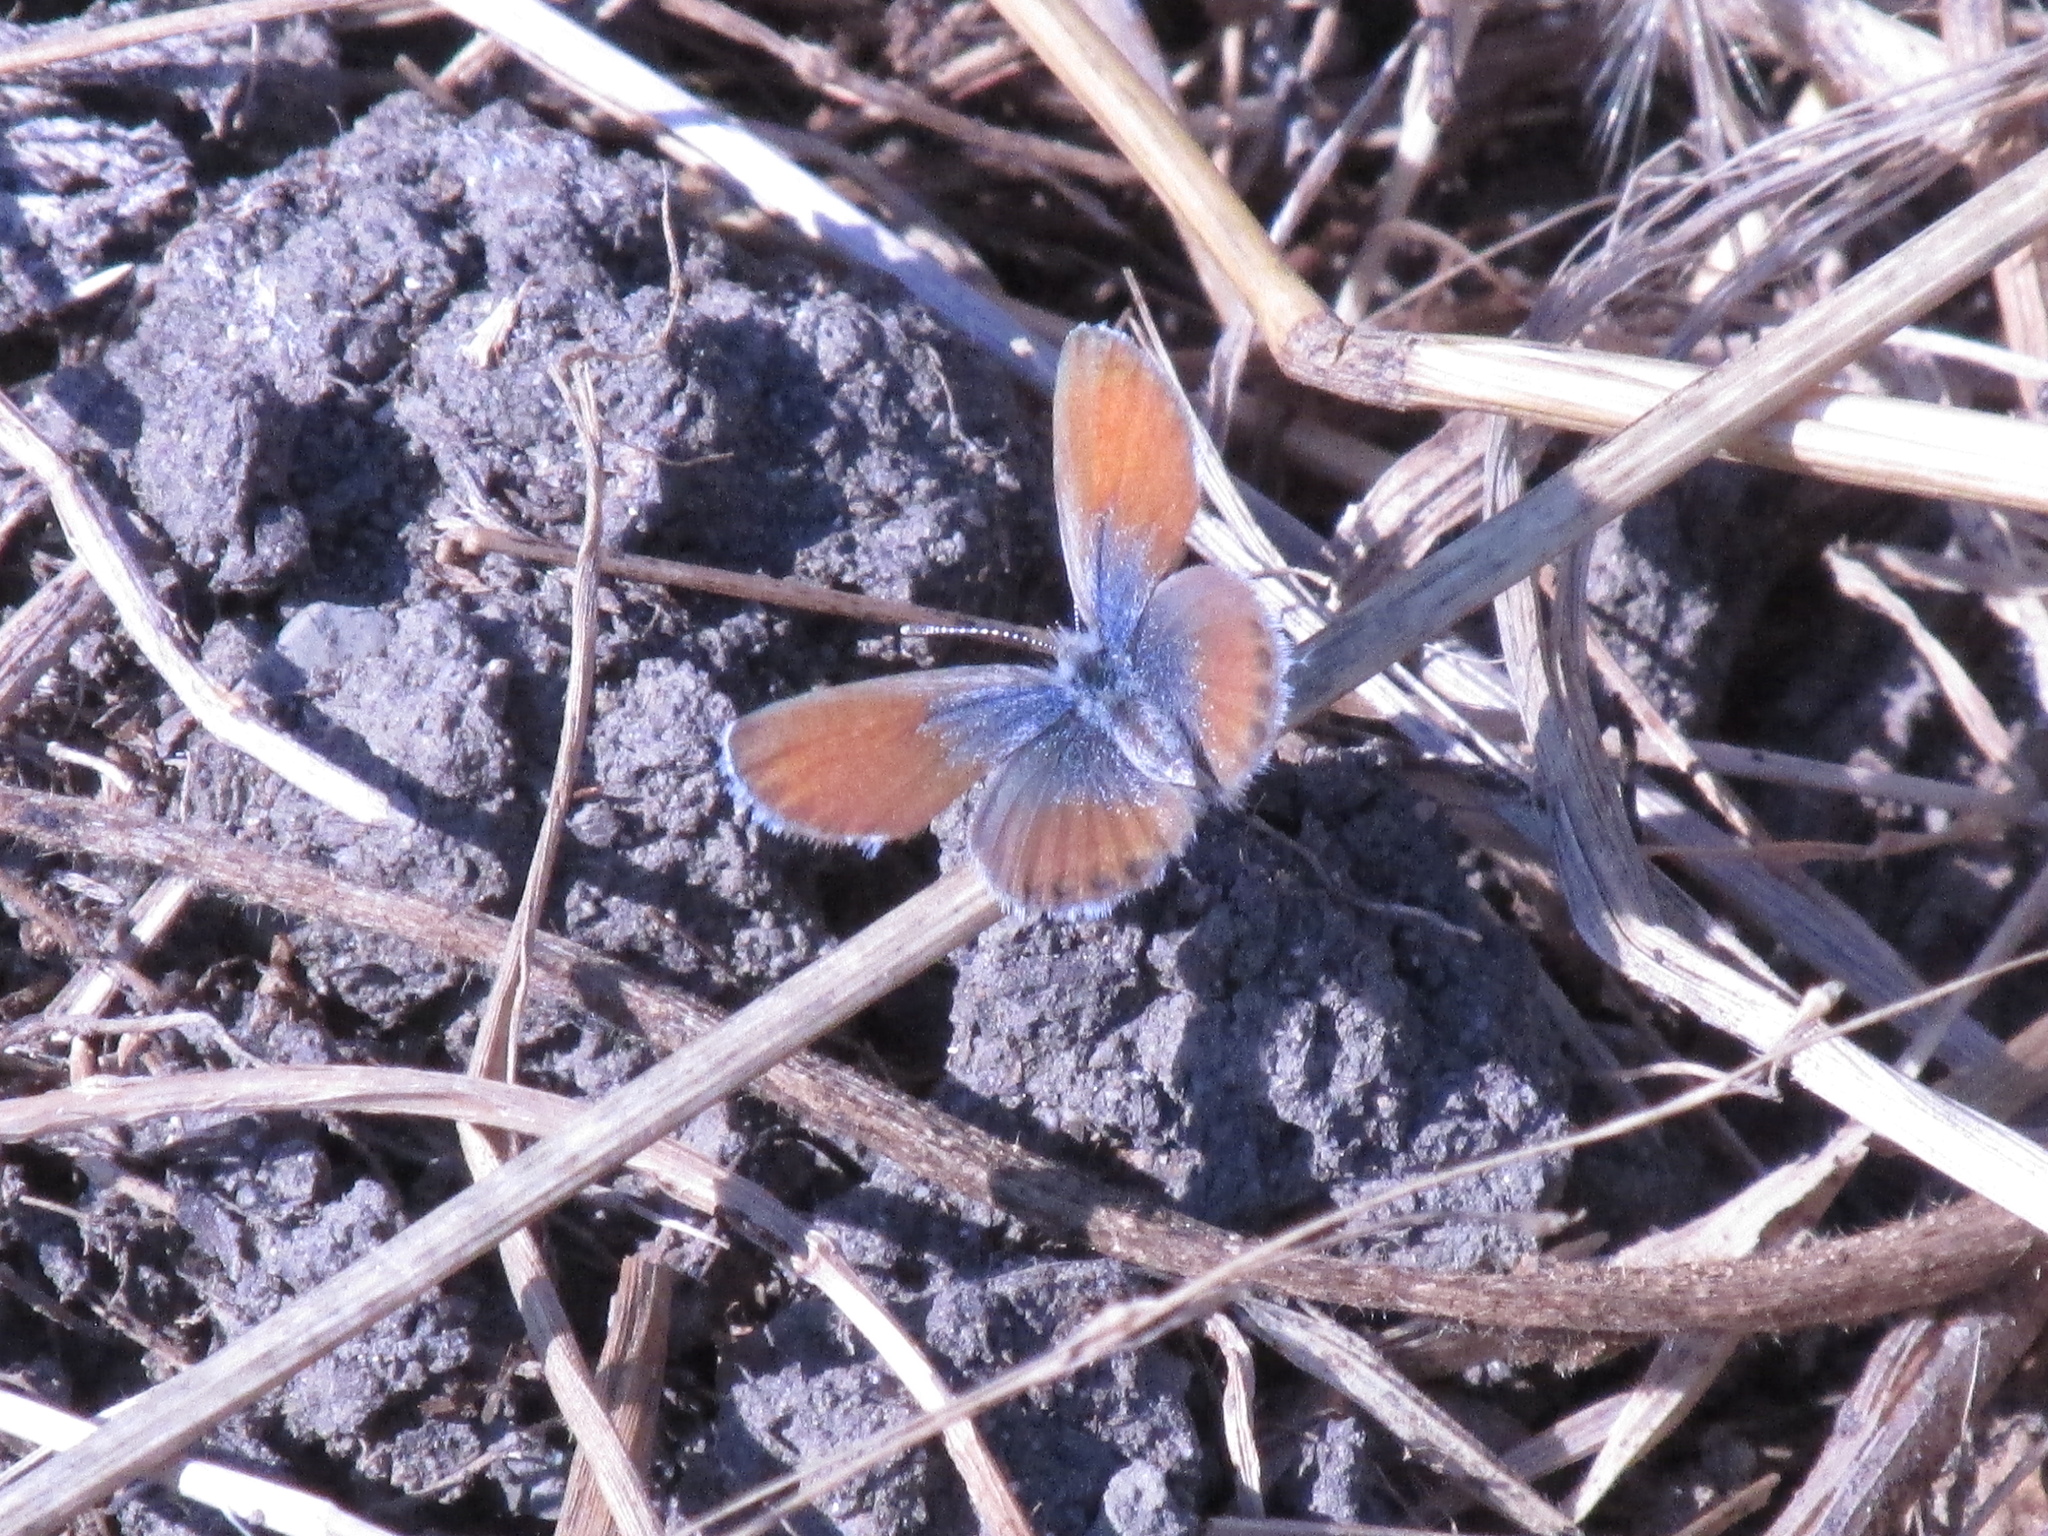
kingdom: Animalia
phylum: Arthropoda
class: Insecta
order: Lepidoptera
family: Lycaenidae
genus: Brephidium
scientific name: Brephidium exilis
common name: Pygmy blue
